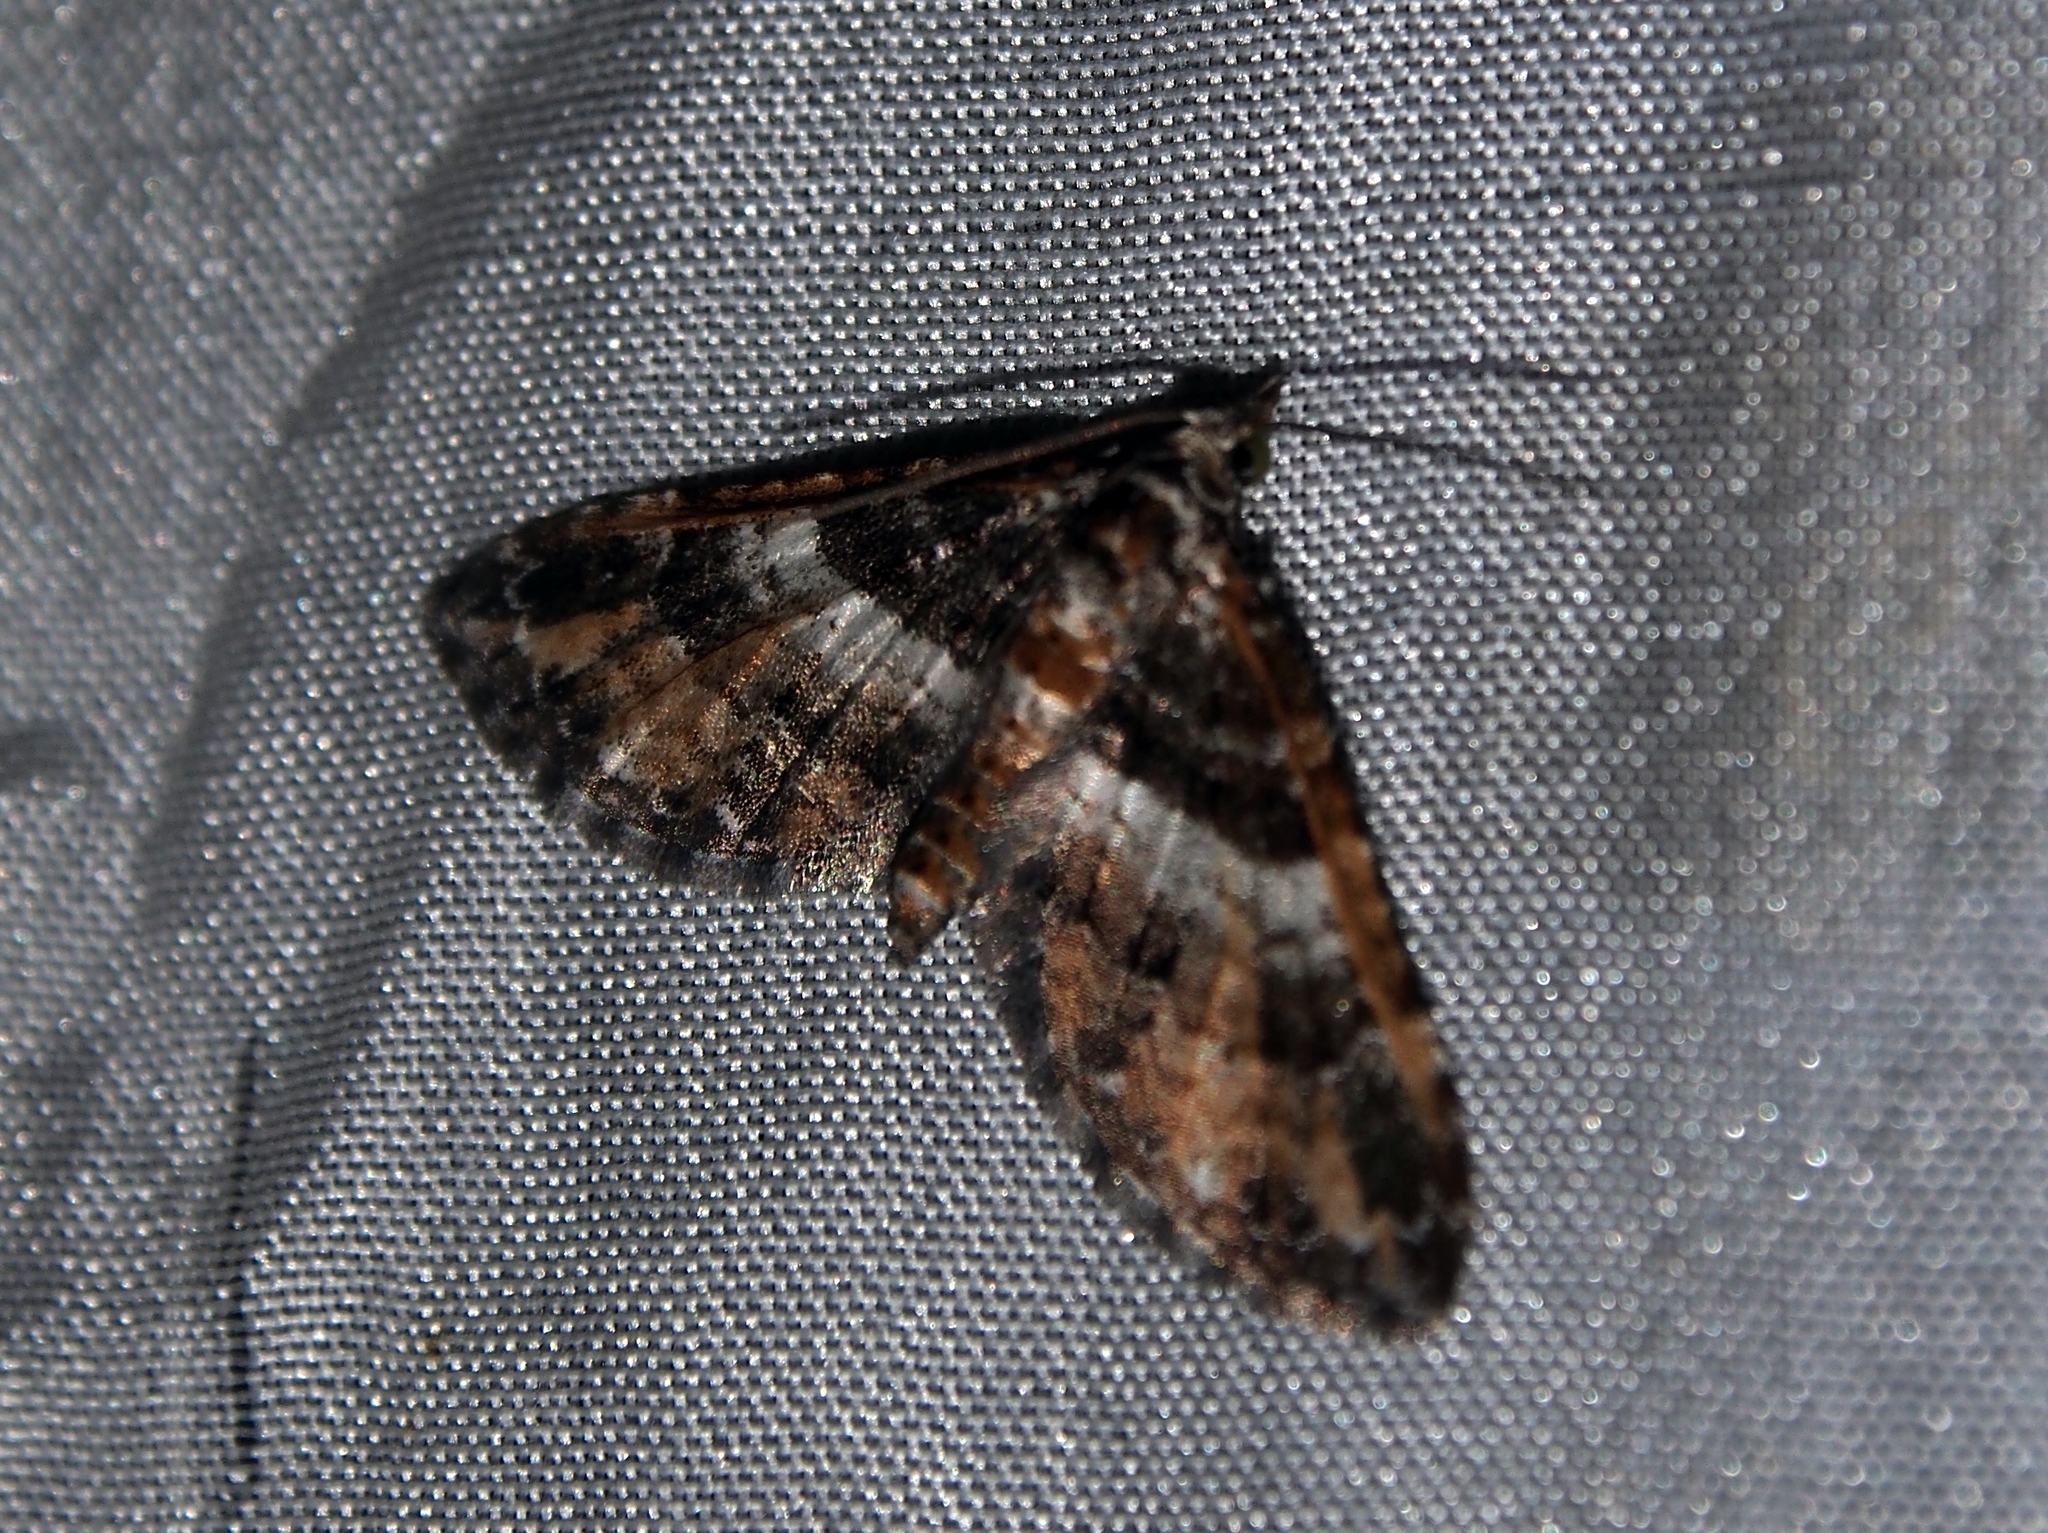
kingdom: Animalia
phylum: Arthropoda
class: Insecta
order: Lepidoptera
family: Geometridae
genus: Eupithecia
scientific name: Eupithecia albimixta
